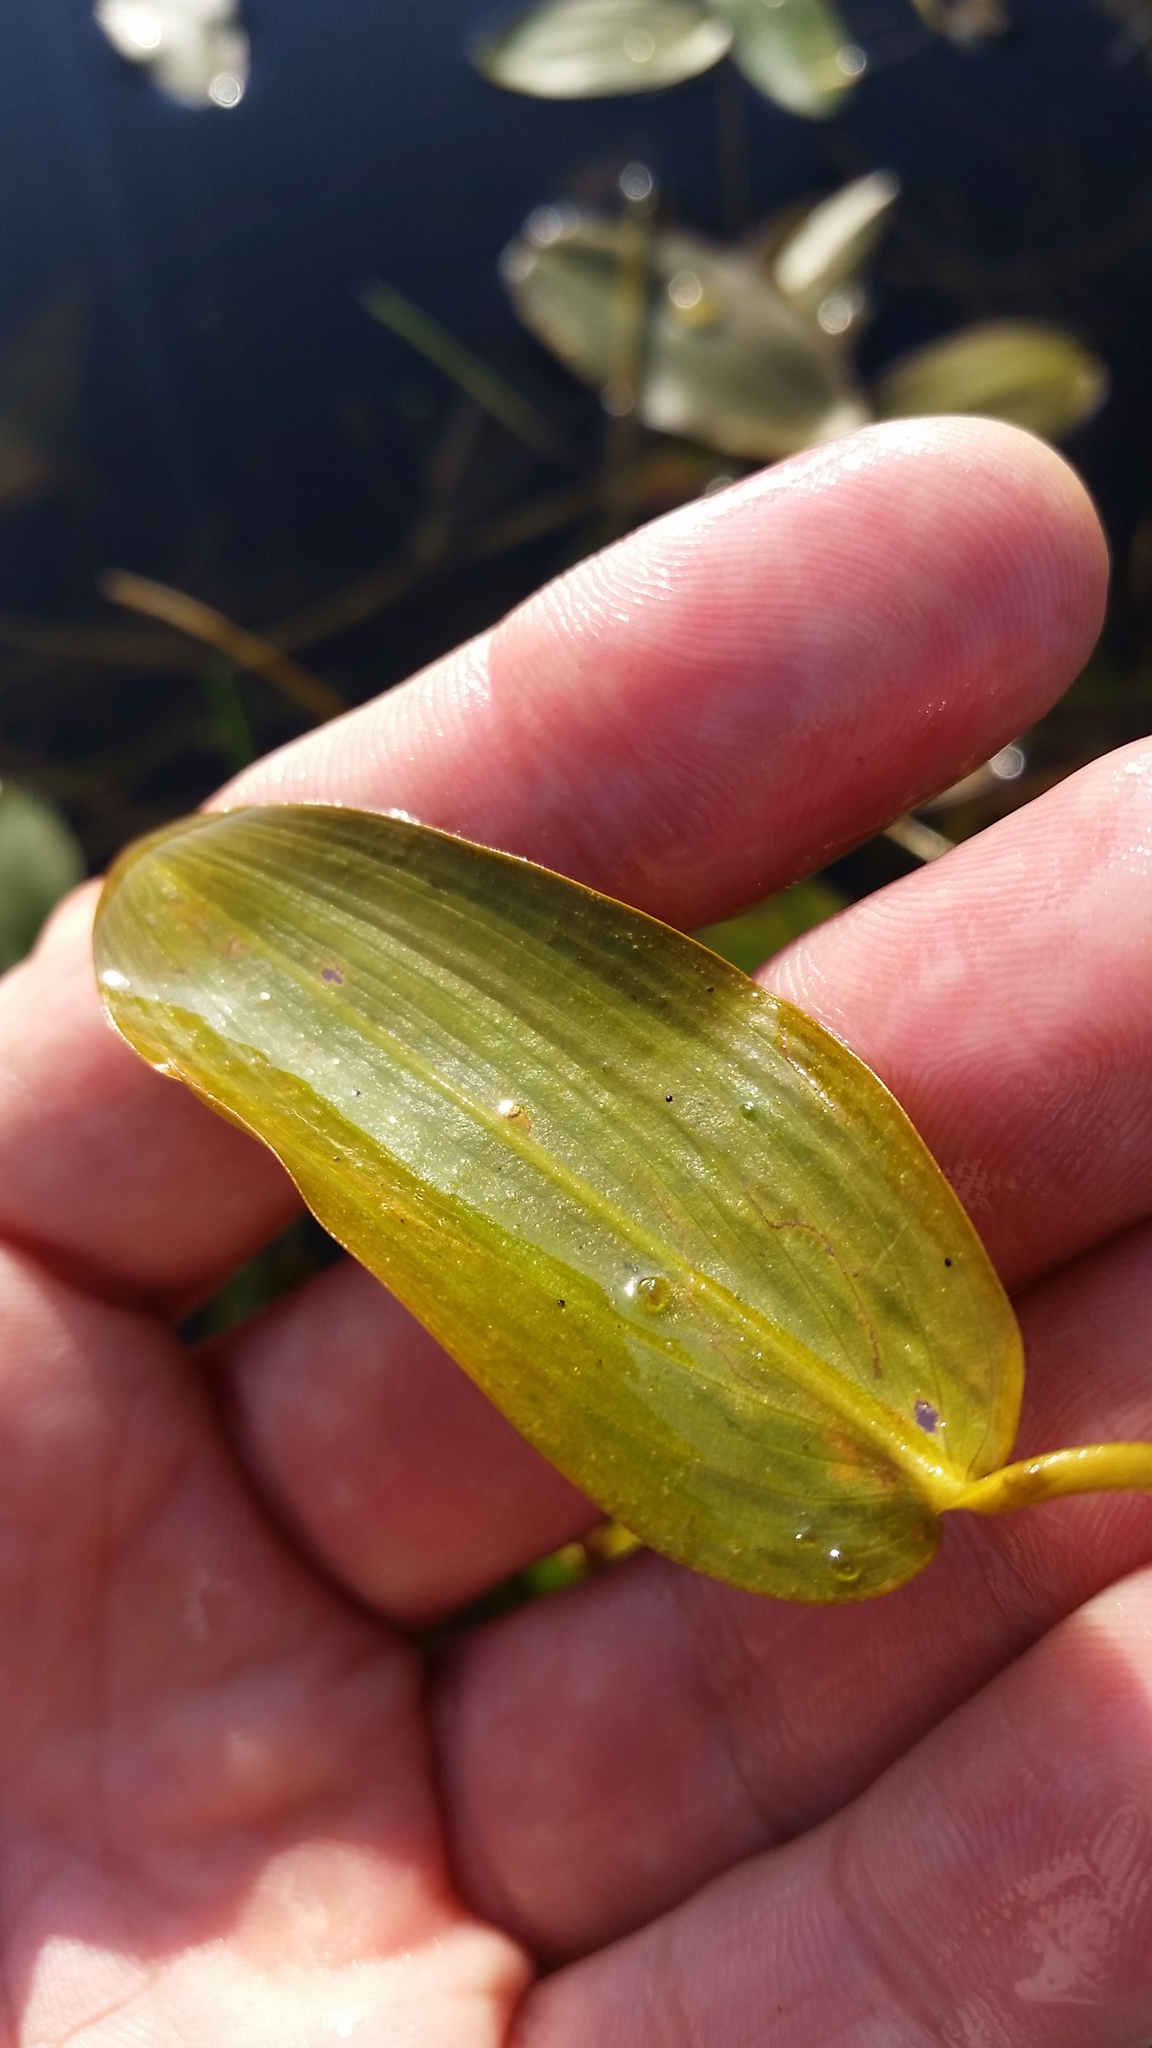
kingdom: Plantae
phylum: Tracheophyta
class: Liliopsida
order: Alismatales
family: Potamogetonaceae
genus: Potamogeton
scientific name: Potamogeton natans
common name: Broad-leaved pondweed
